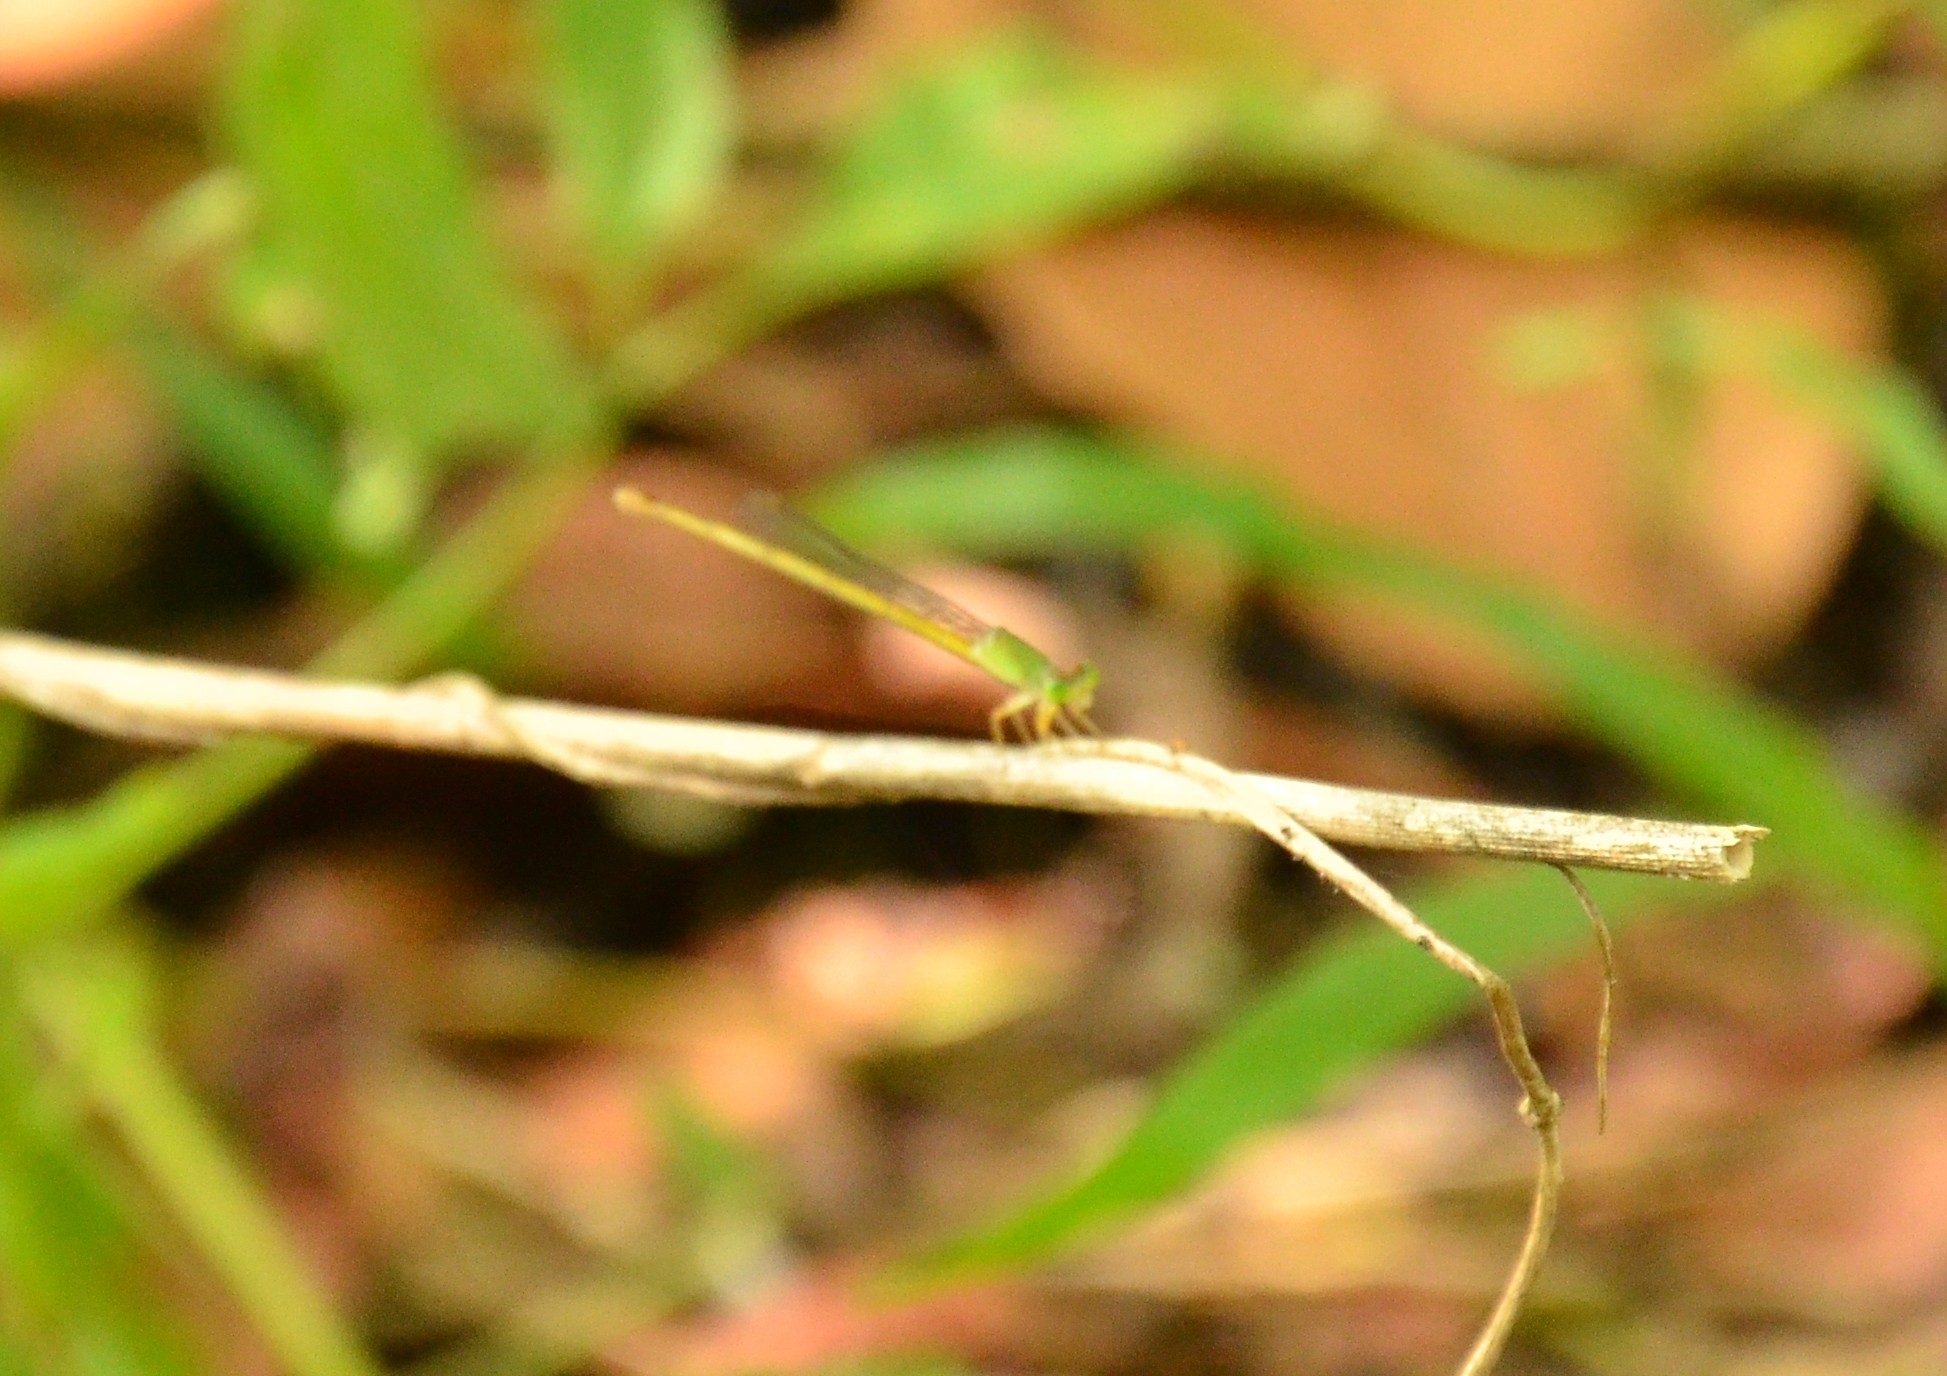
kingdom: Animalia
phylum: Arthropoda
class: Insecta
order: Odonata
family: Coenagrionidae
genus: Ceriagrion
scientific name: Ceriagrion coromandelianum
